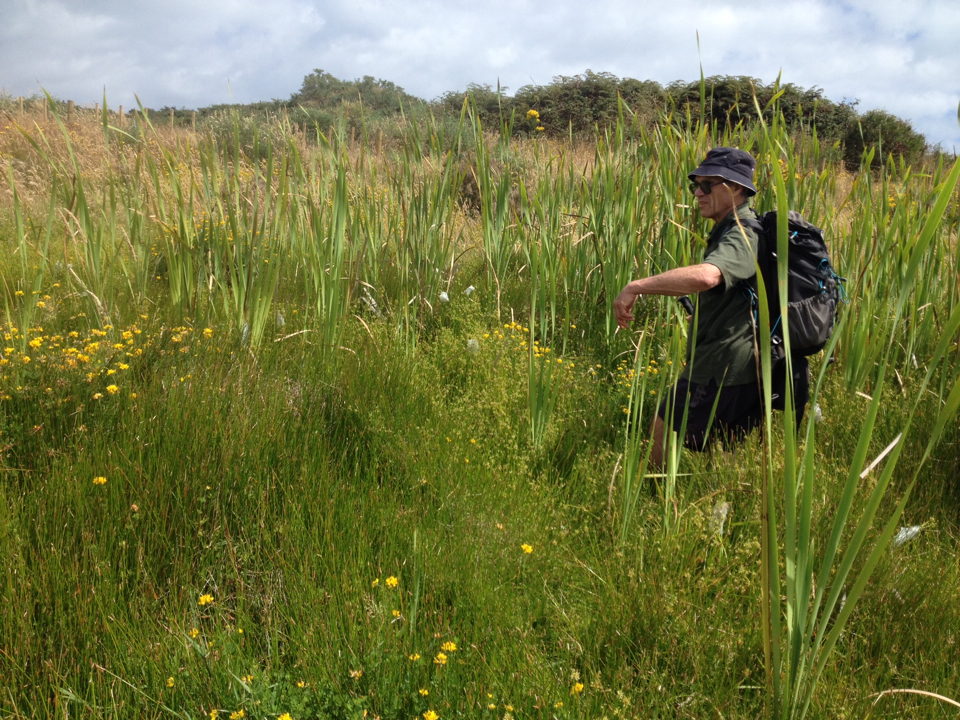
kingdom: Plantae
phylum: Tracheophyta
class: Liliopsida
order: Poales
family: Cyperaceae
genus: Eleocharis
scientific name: Eleocharis acuta
